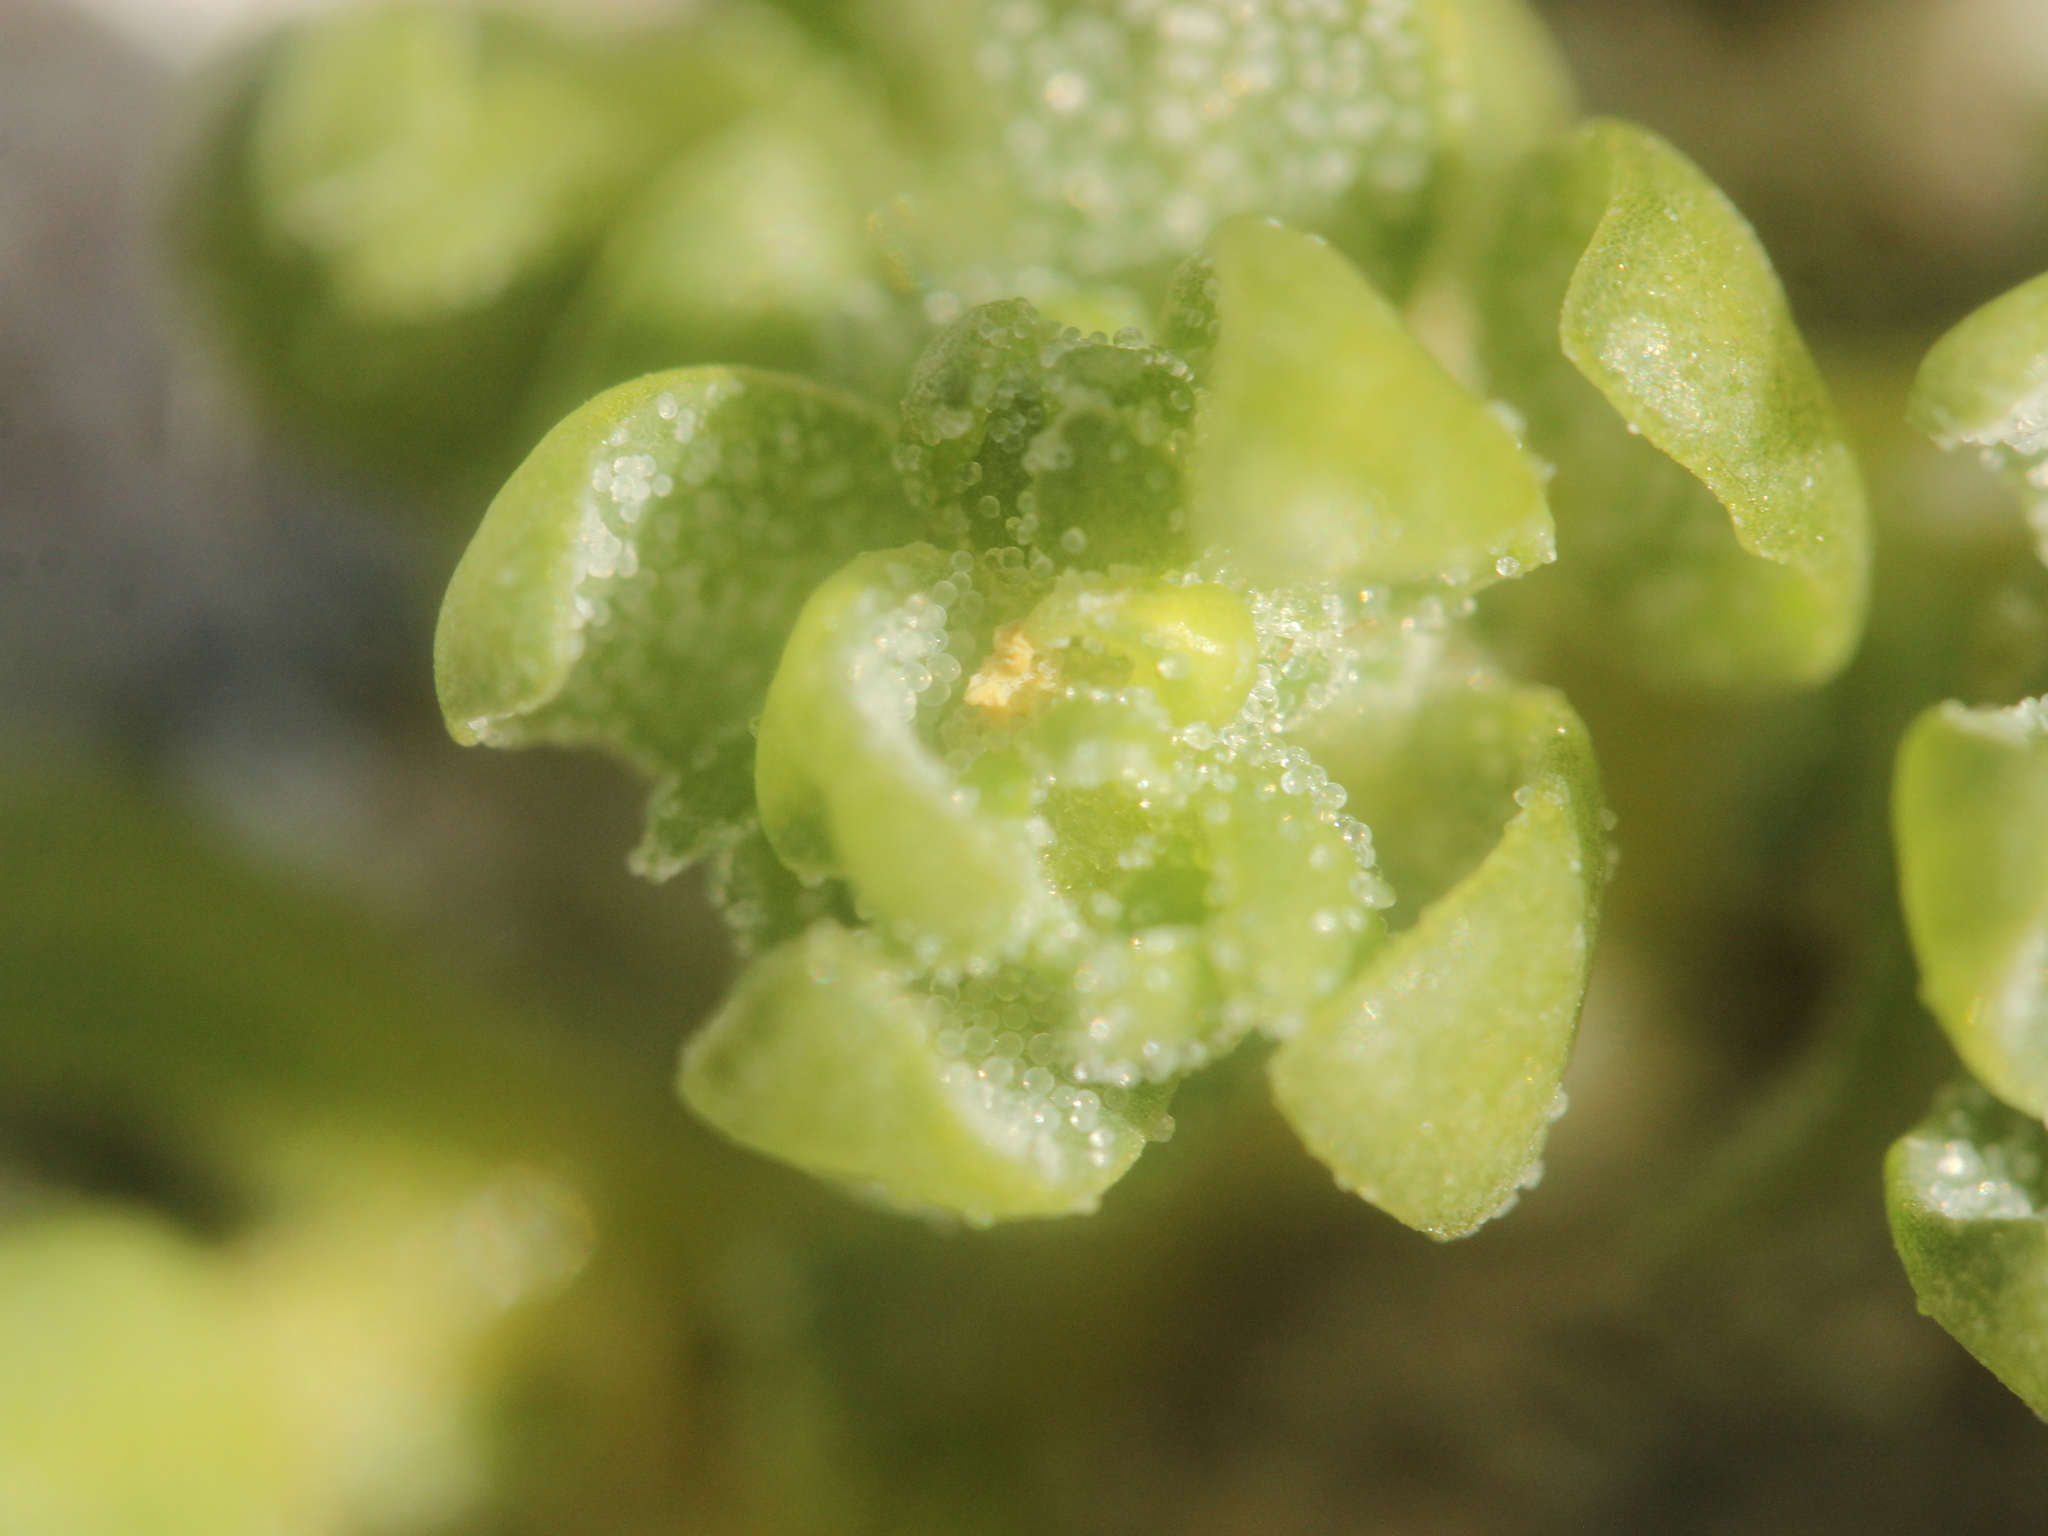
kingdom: Plantae
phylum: Tracheophyta
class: Magnoliopsida
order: Caryophyllales
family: Amaranthaceae
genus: Atriplex
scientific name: Atriplex billardierei
